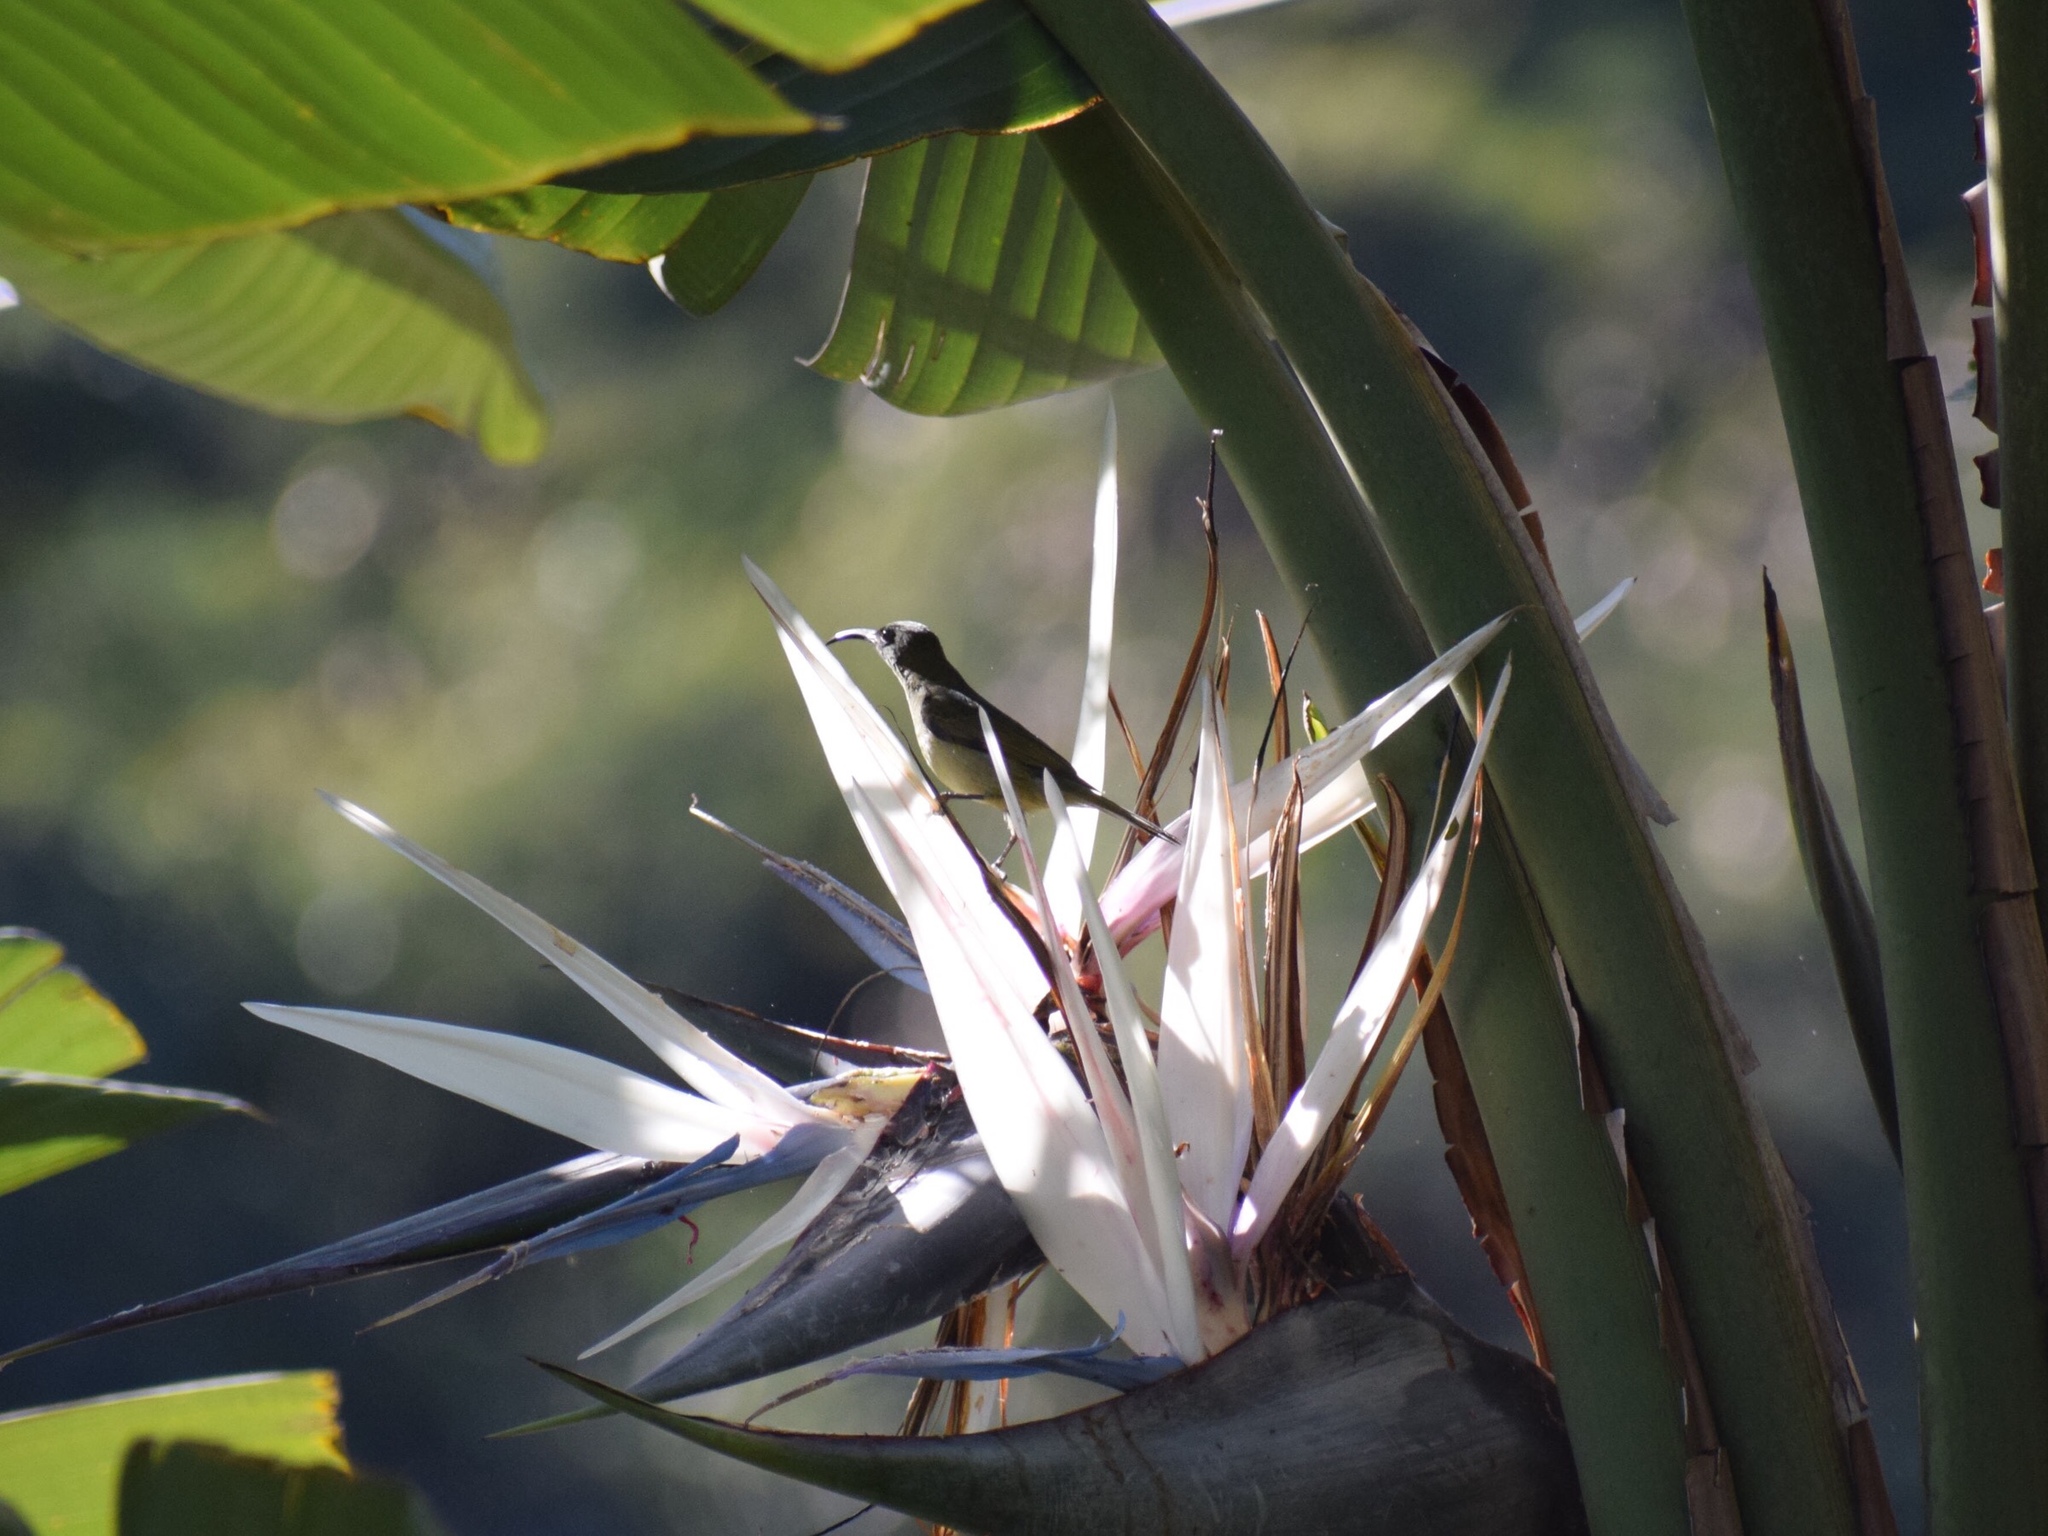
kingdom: Animalia
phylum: Chordata
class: Aves
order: Passeriformes
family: Nectariniidae
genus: Cyanomitra
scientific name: Cyanomitra veroxii
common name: Grey sunbird
